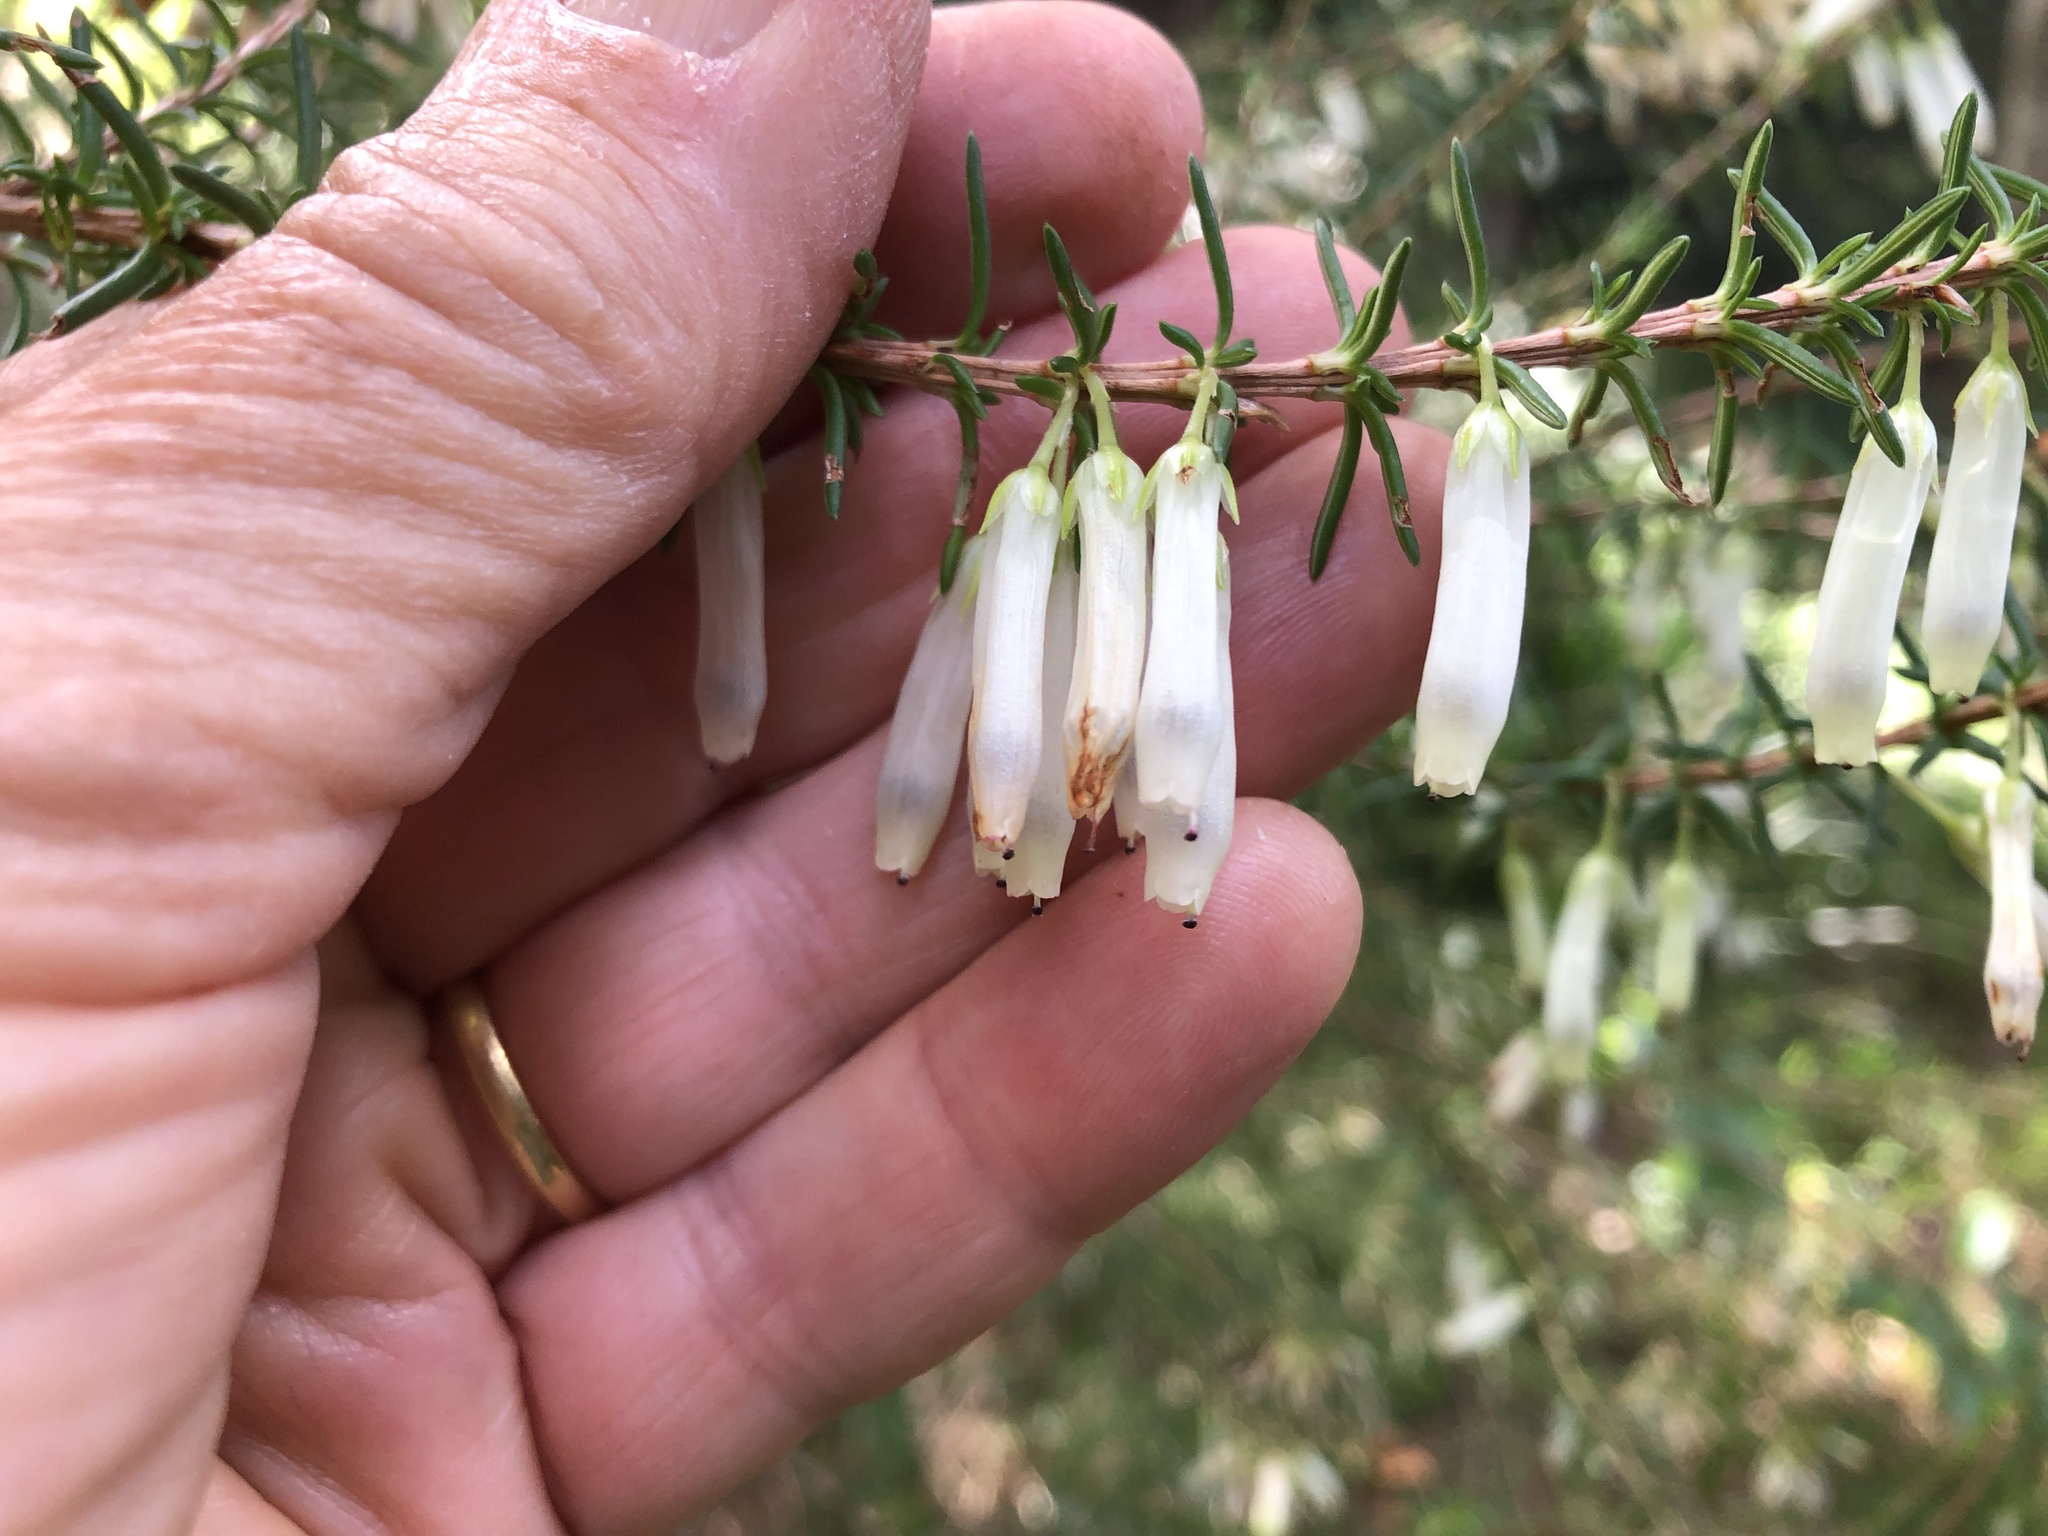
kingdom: Plantae
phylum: Tracheophyta
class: Magnoliopsida
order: Ericales
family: Ericaceae
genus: Erica
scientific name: Erica mammosa
